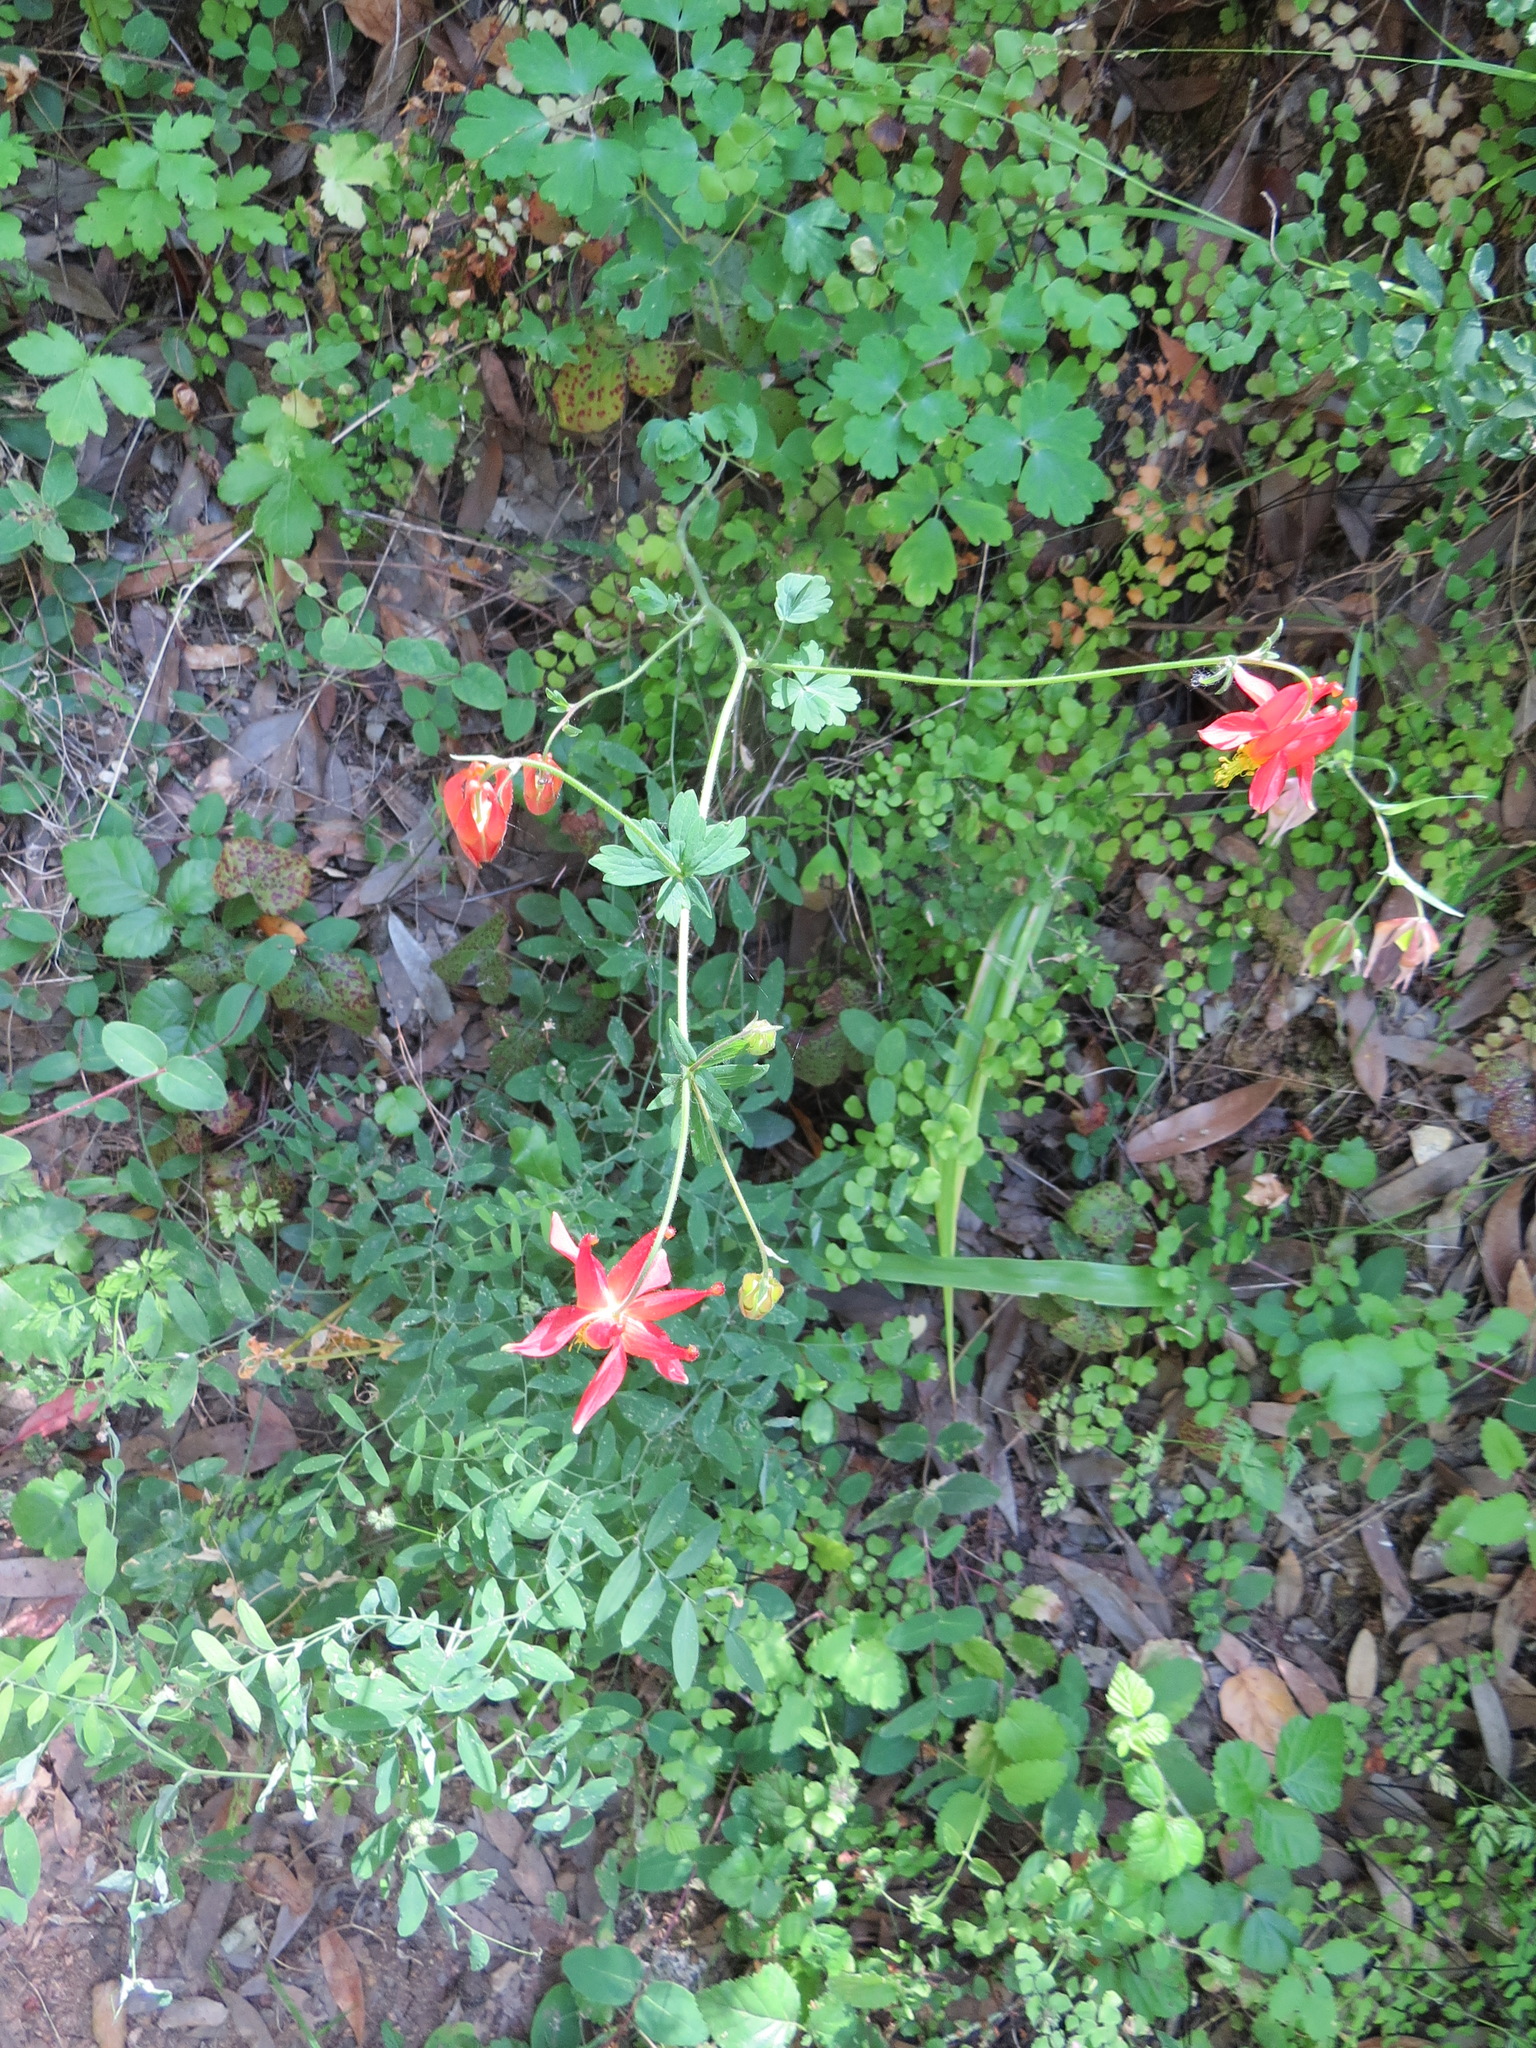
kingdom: Plantae
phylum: Tracheophyta
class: Magnoliopsida
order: Ranunculales
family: Ranunculaceae
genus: Aquilegia
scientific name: Aquilegia formosa
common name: Sitka columbine
